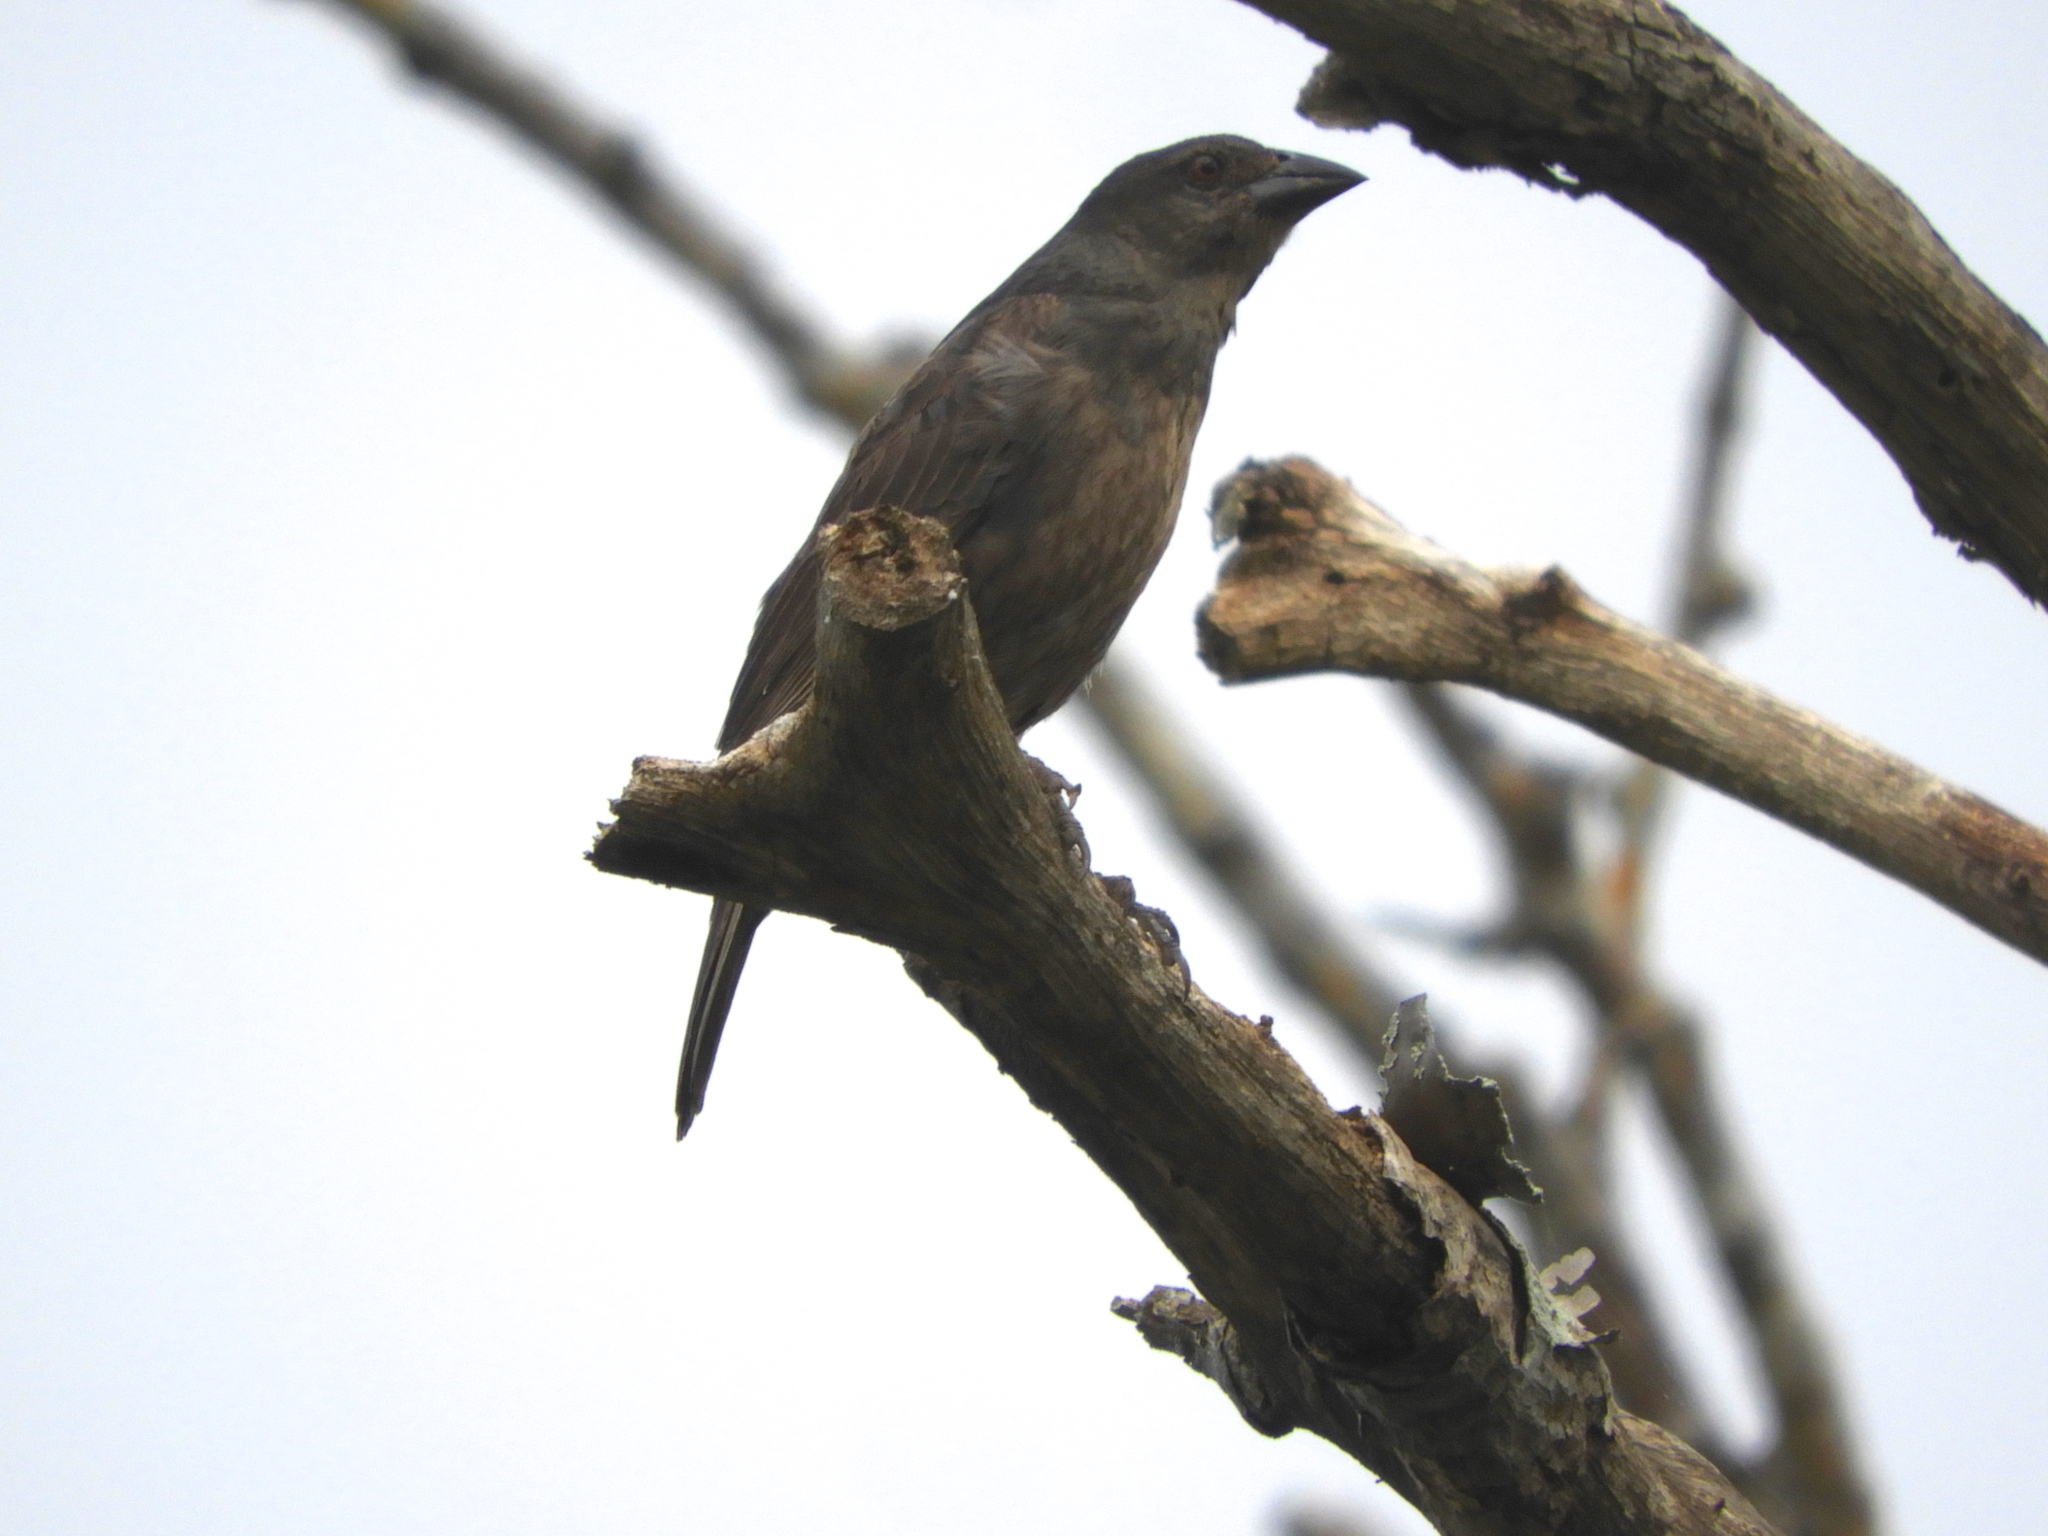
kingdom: Animalia
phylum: Chordata
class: Aves
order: Passeriformes
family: Icteridae
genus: Molothrus
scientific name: Molothrus aeneus
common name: Bronzed cowbird
